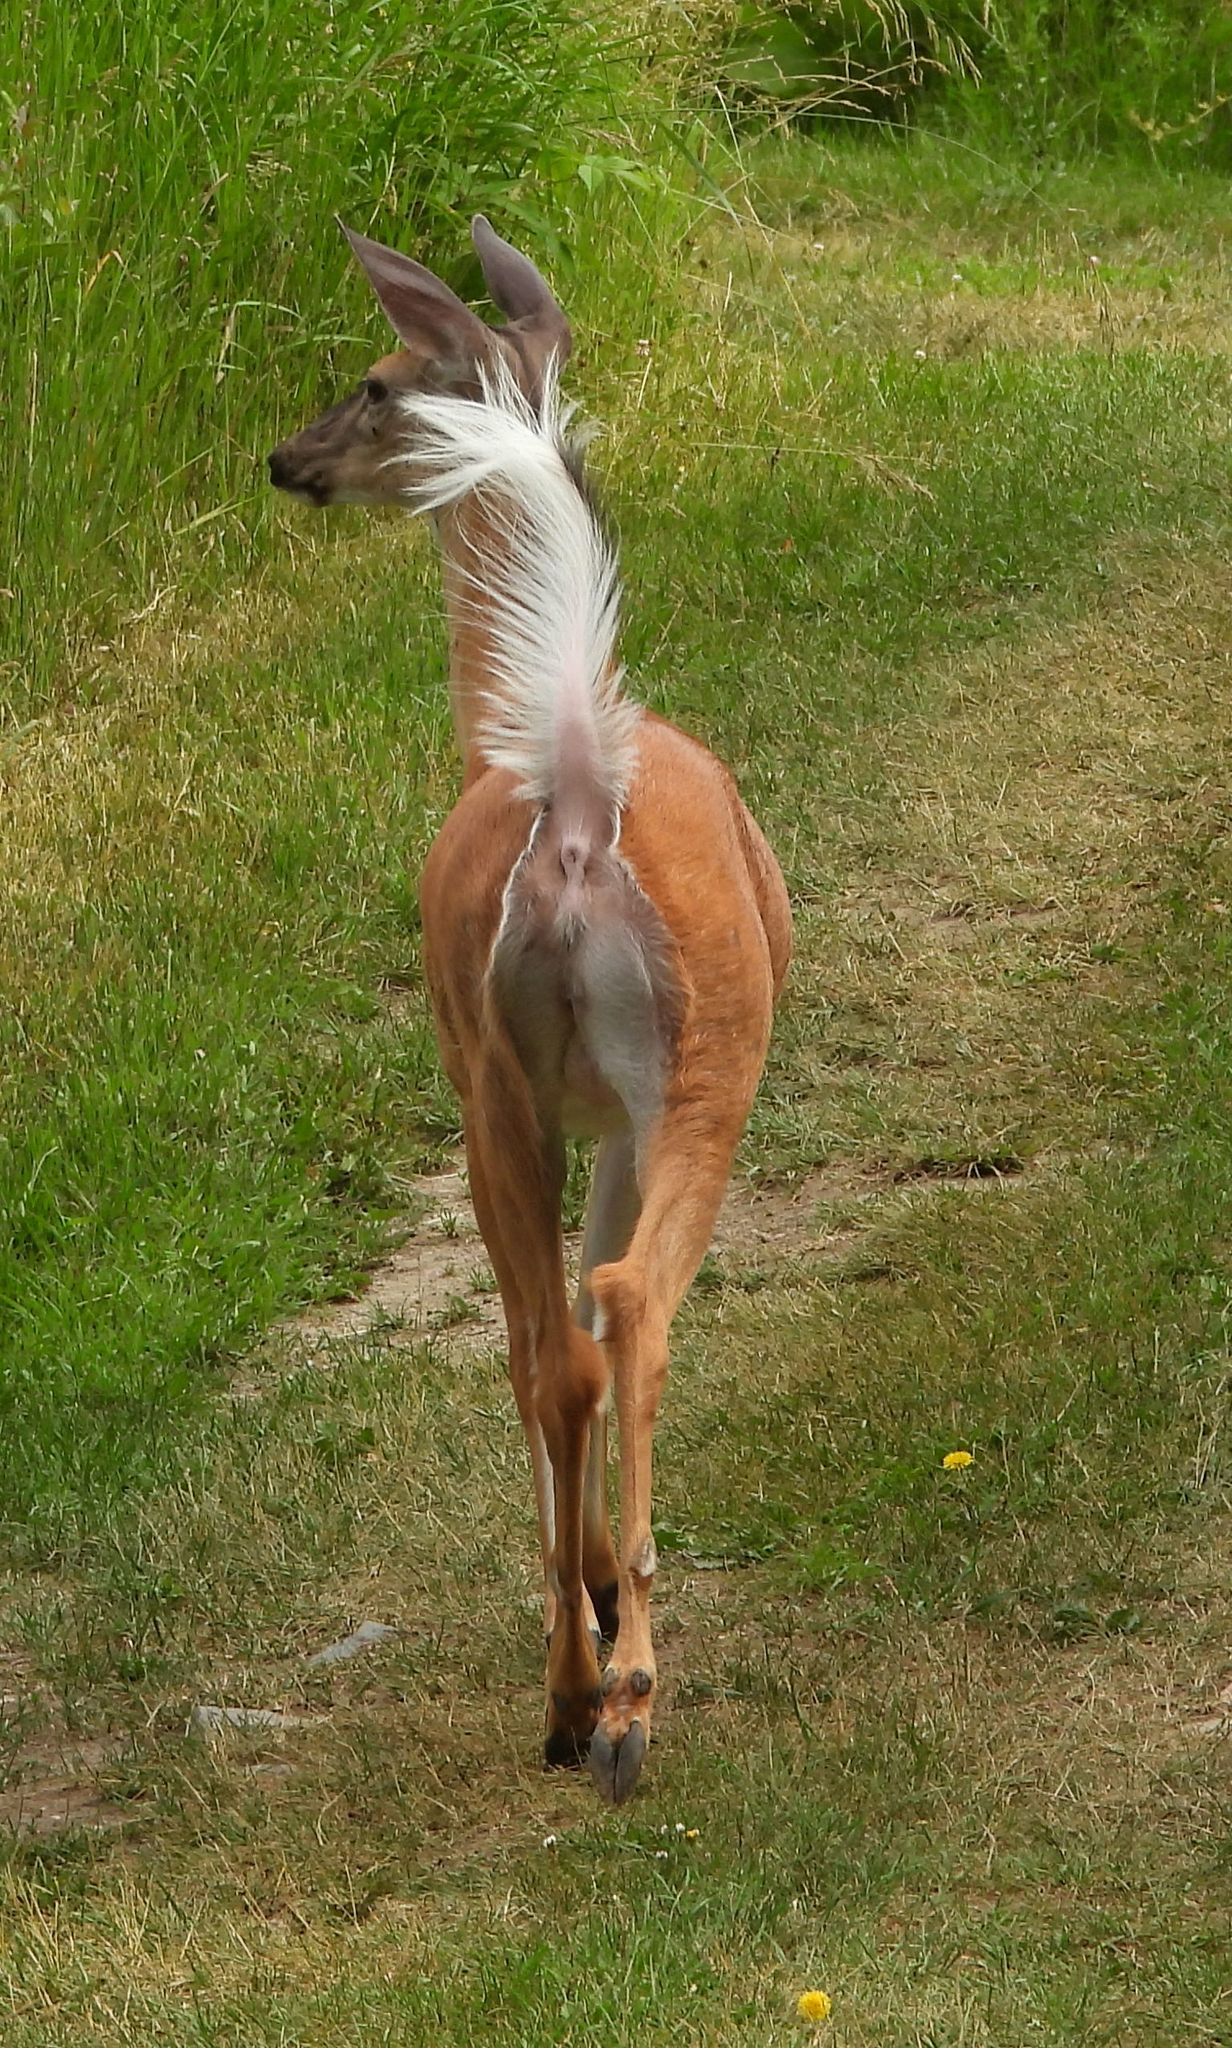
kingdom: Animalia
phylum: Chordata
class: Mammalia
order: Artiodactyla
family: Cervidae
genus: Odocoileus
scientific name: Odocoileus virginianus
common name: White-tailed deer
